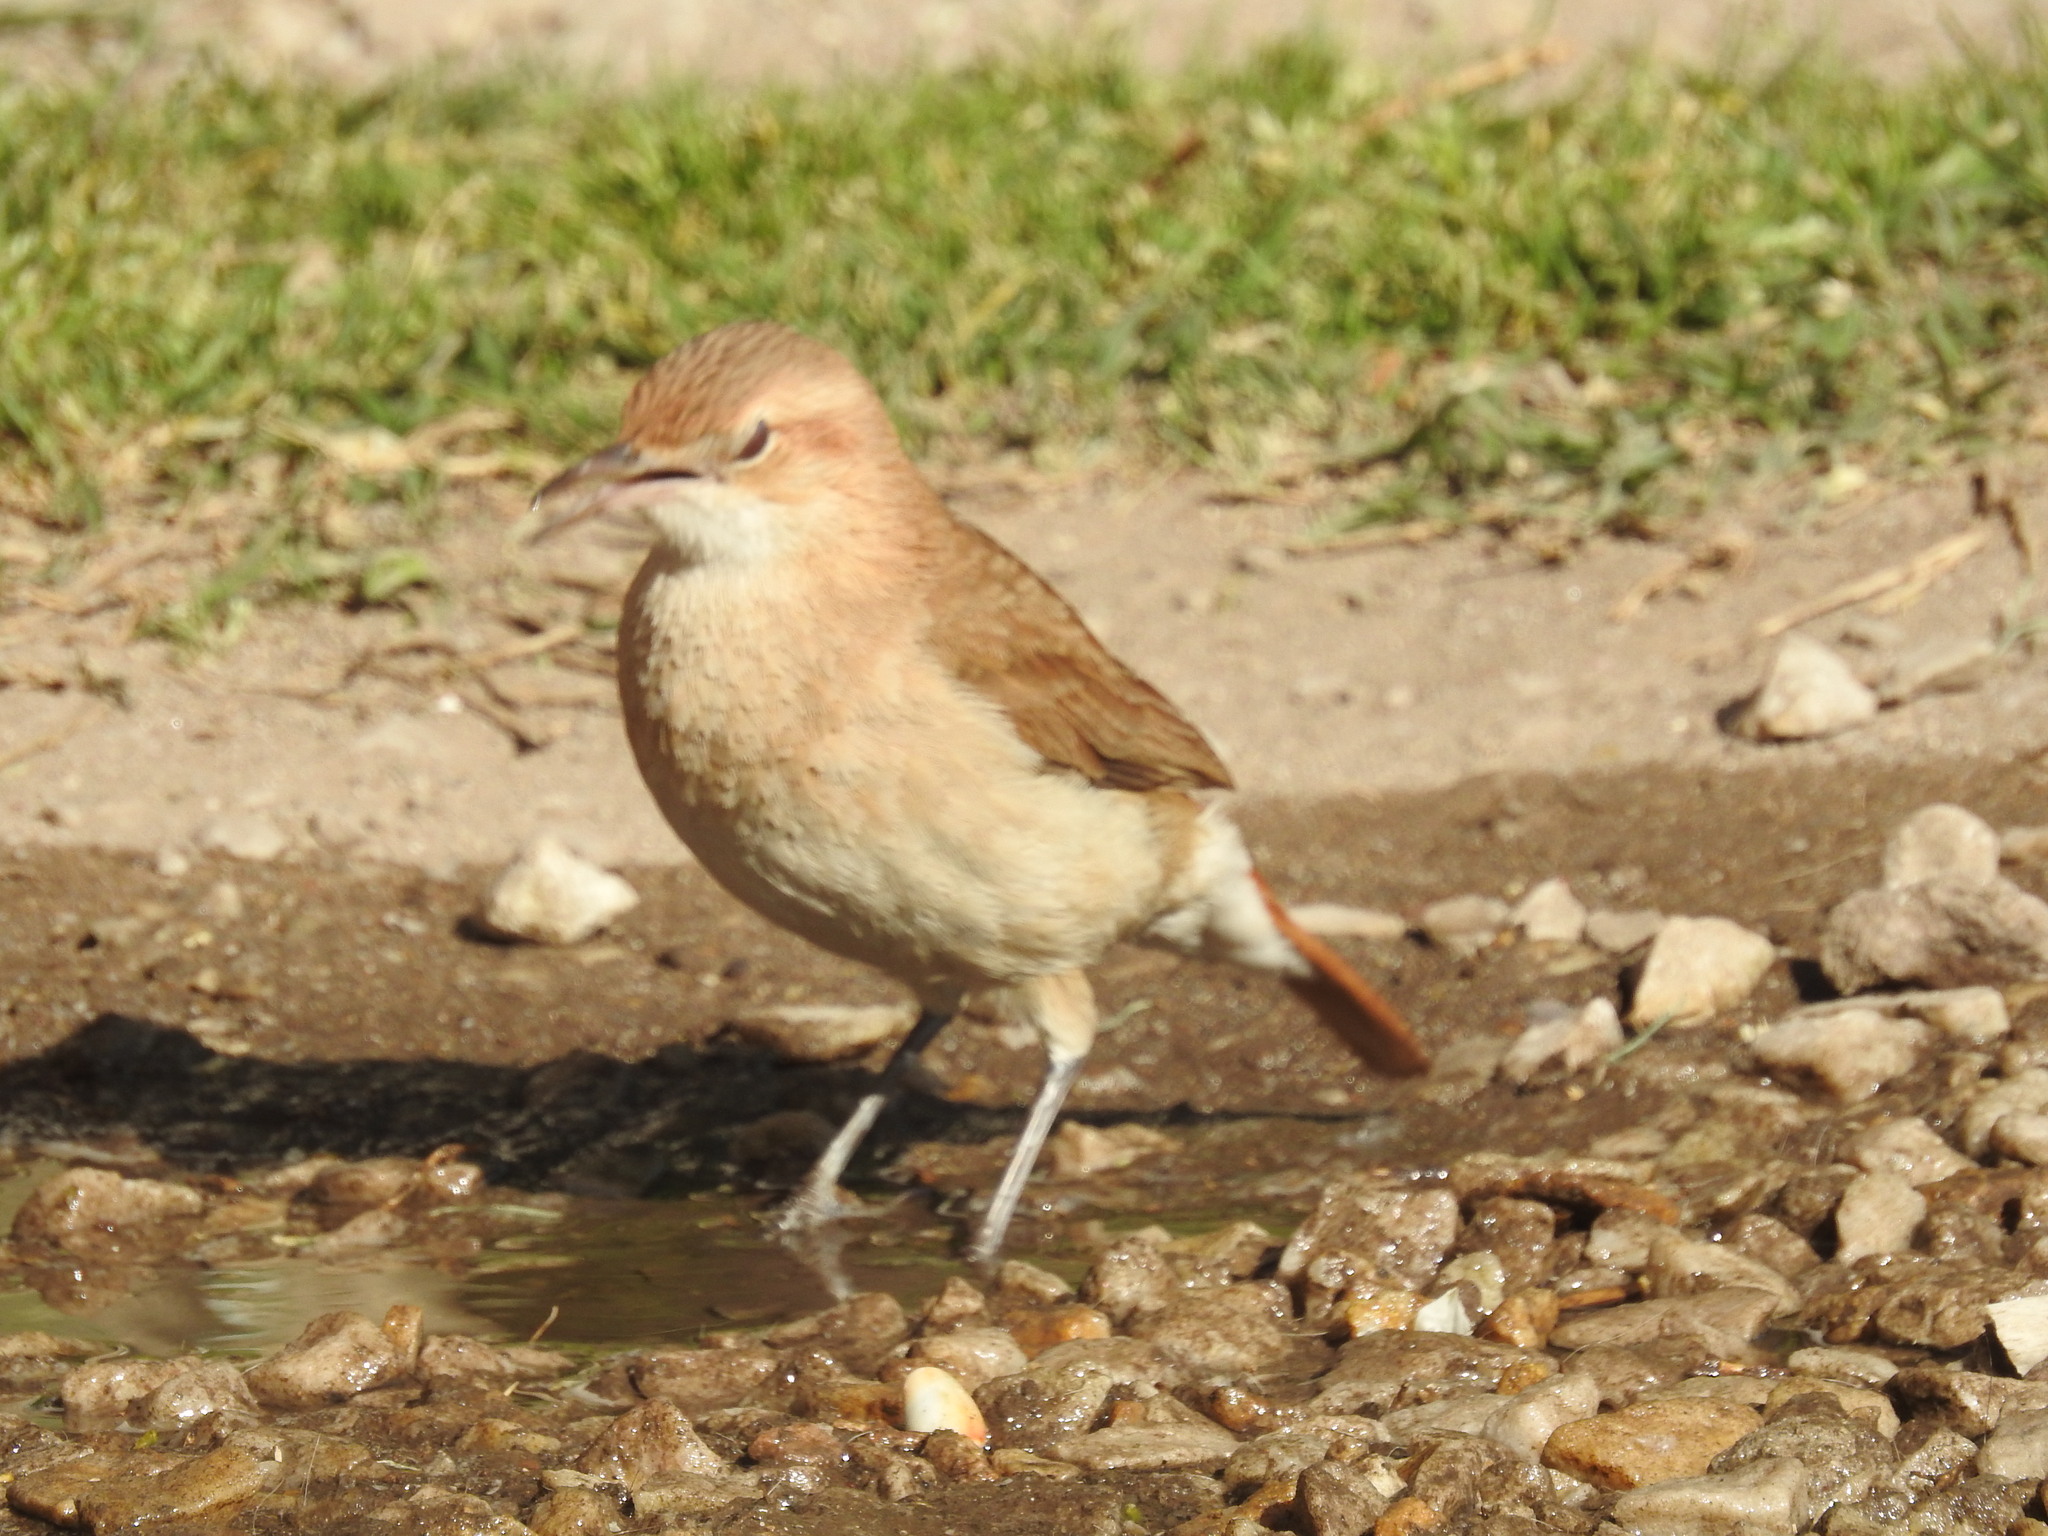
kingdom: Animalia
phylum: Chordata
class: Aves
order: Passeriformes
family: Furnariidae
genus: Furnarius
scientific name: Furnarius rufus
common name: Rufous hornero
